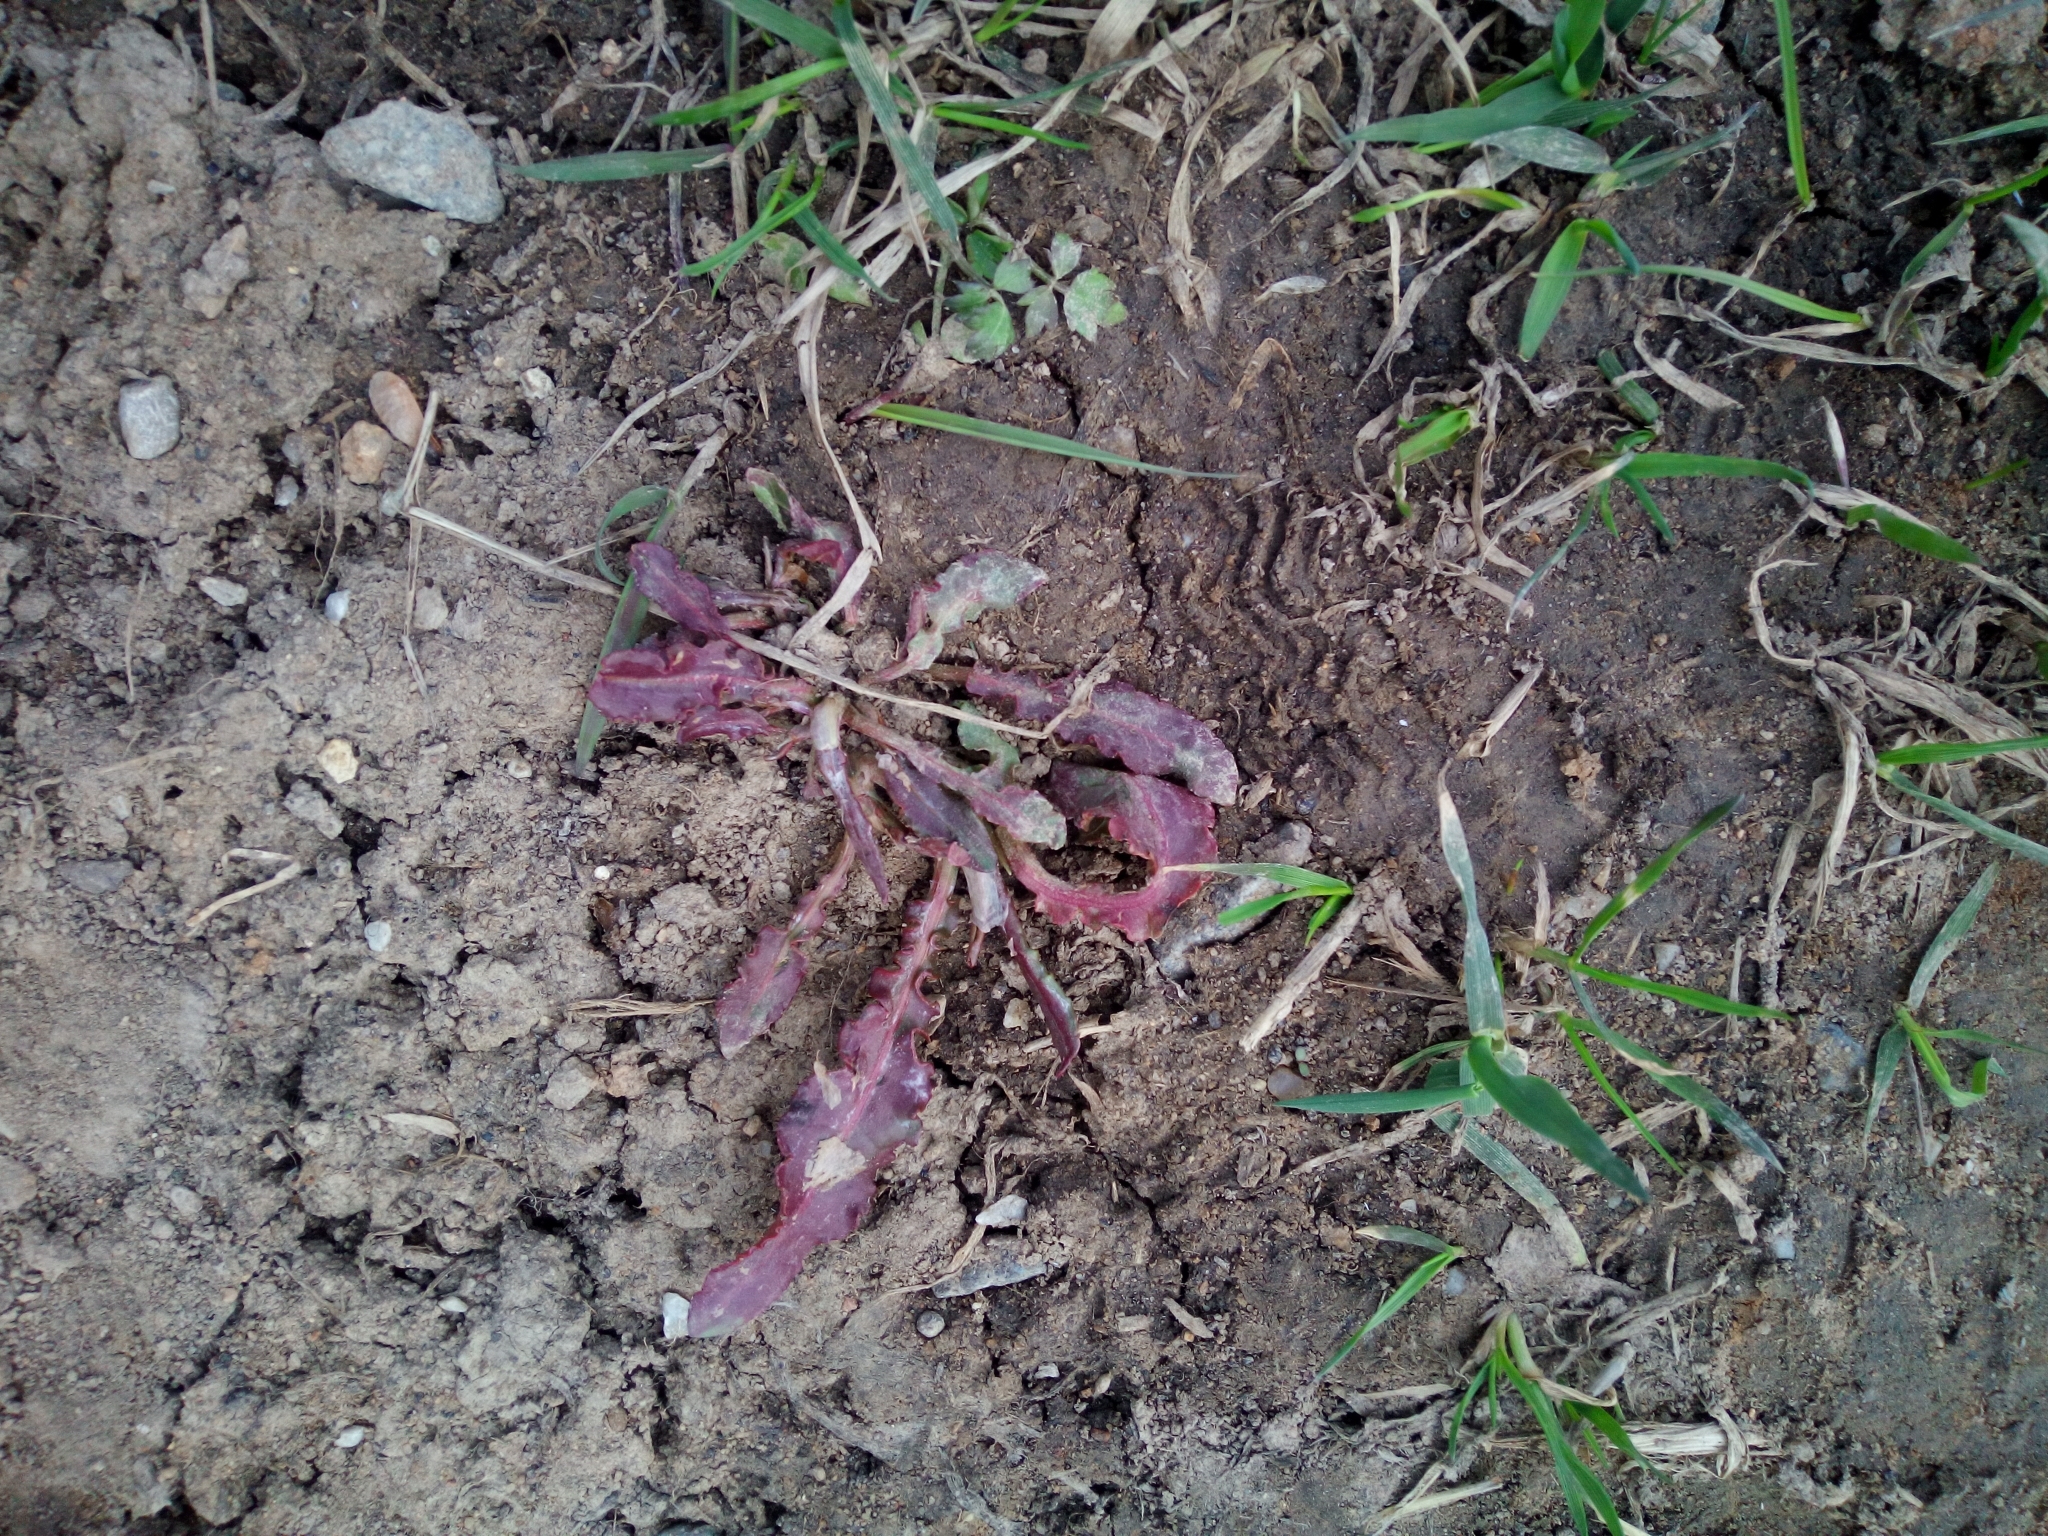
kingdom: Plantae
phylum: Tracheophyta
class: Magnoliopsida
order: Caryophyllales
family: Polygonaceae
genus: Rumex
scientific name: Rumex
